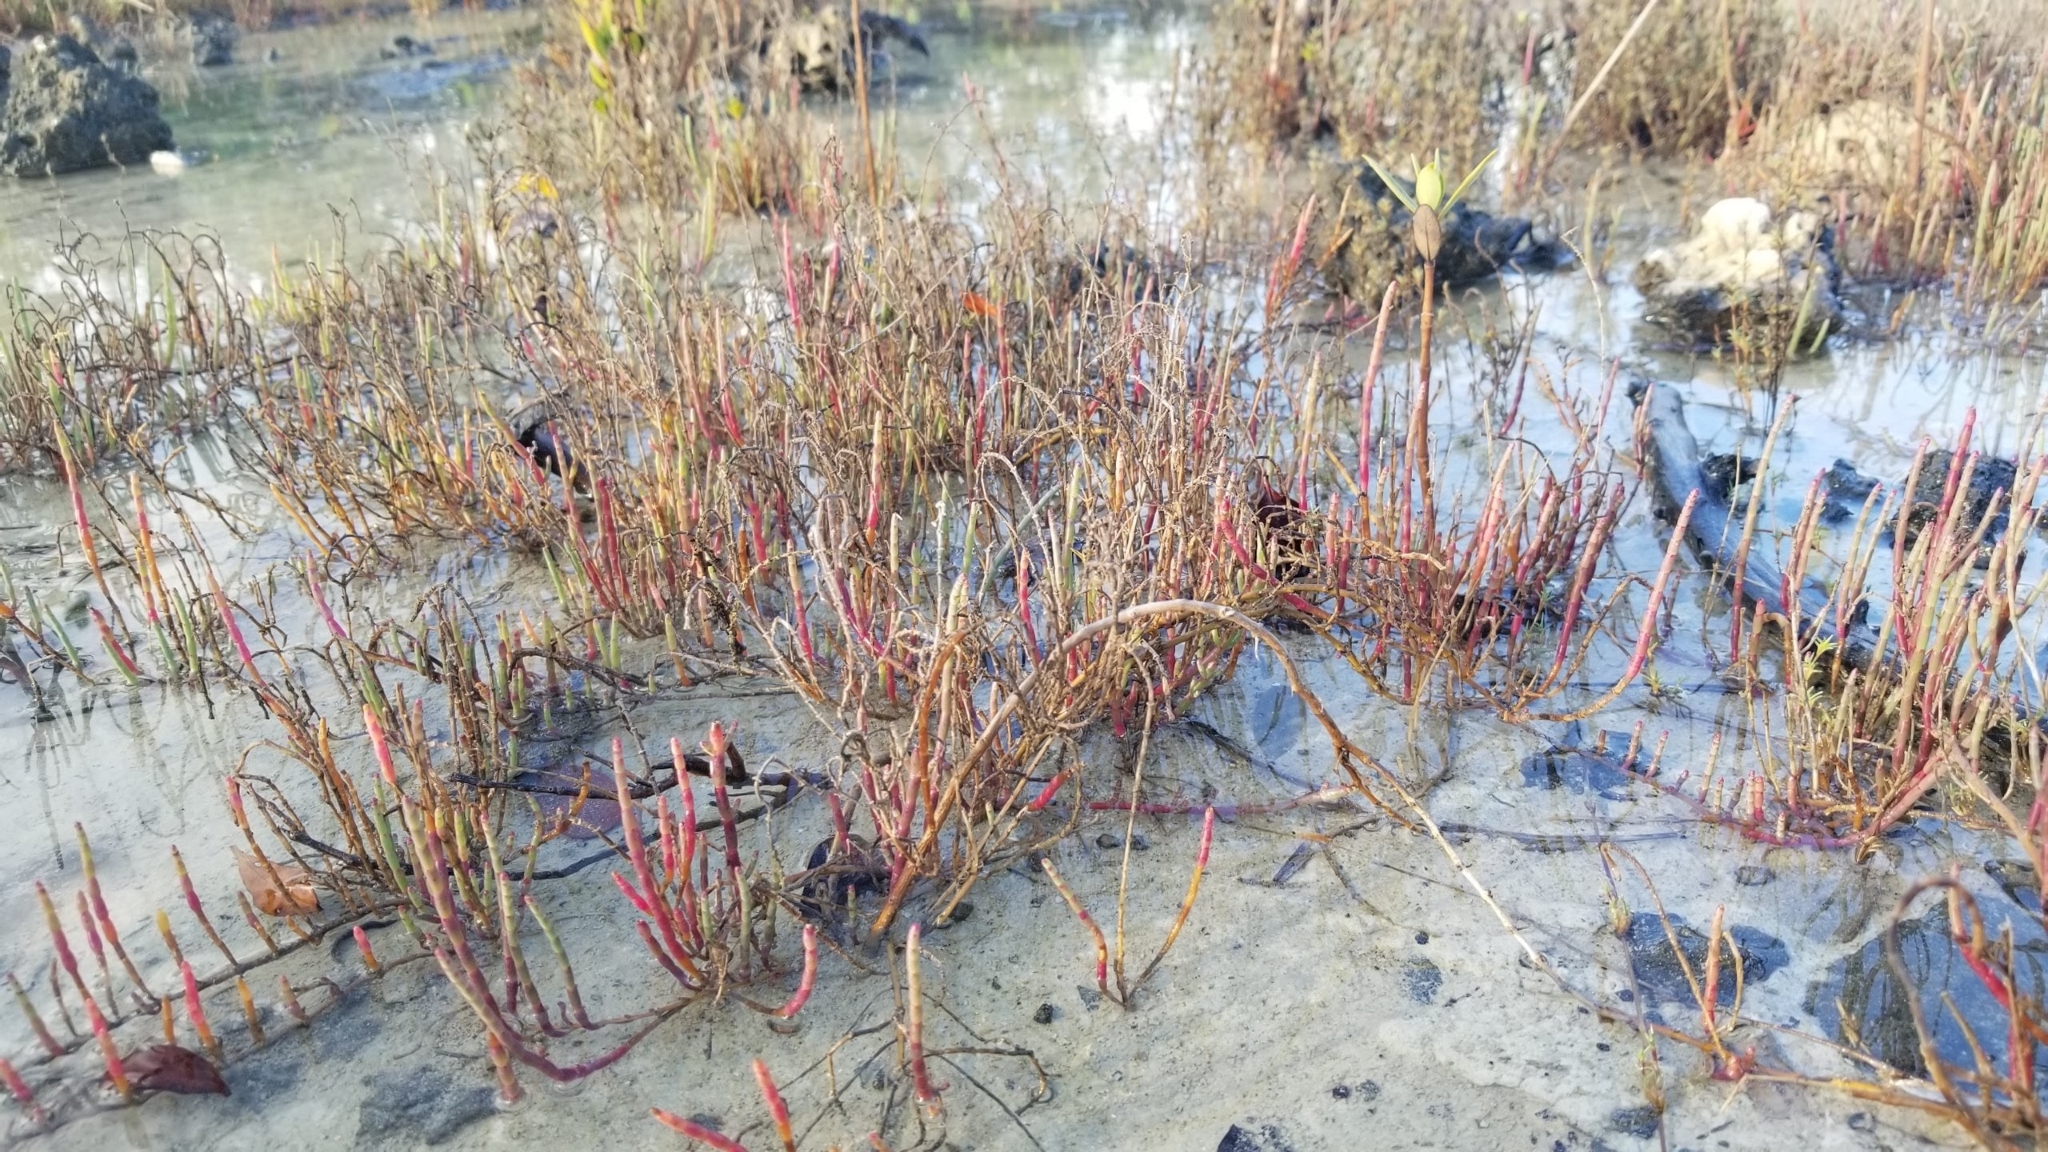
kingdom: Plantae
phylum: Tracheophyta
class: Magnoliopsida
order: Caryophyllales
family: Amaranthaceae
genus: Salicornia
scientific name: Salicornia ambigua
